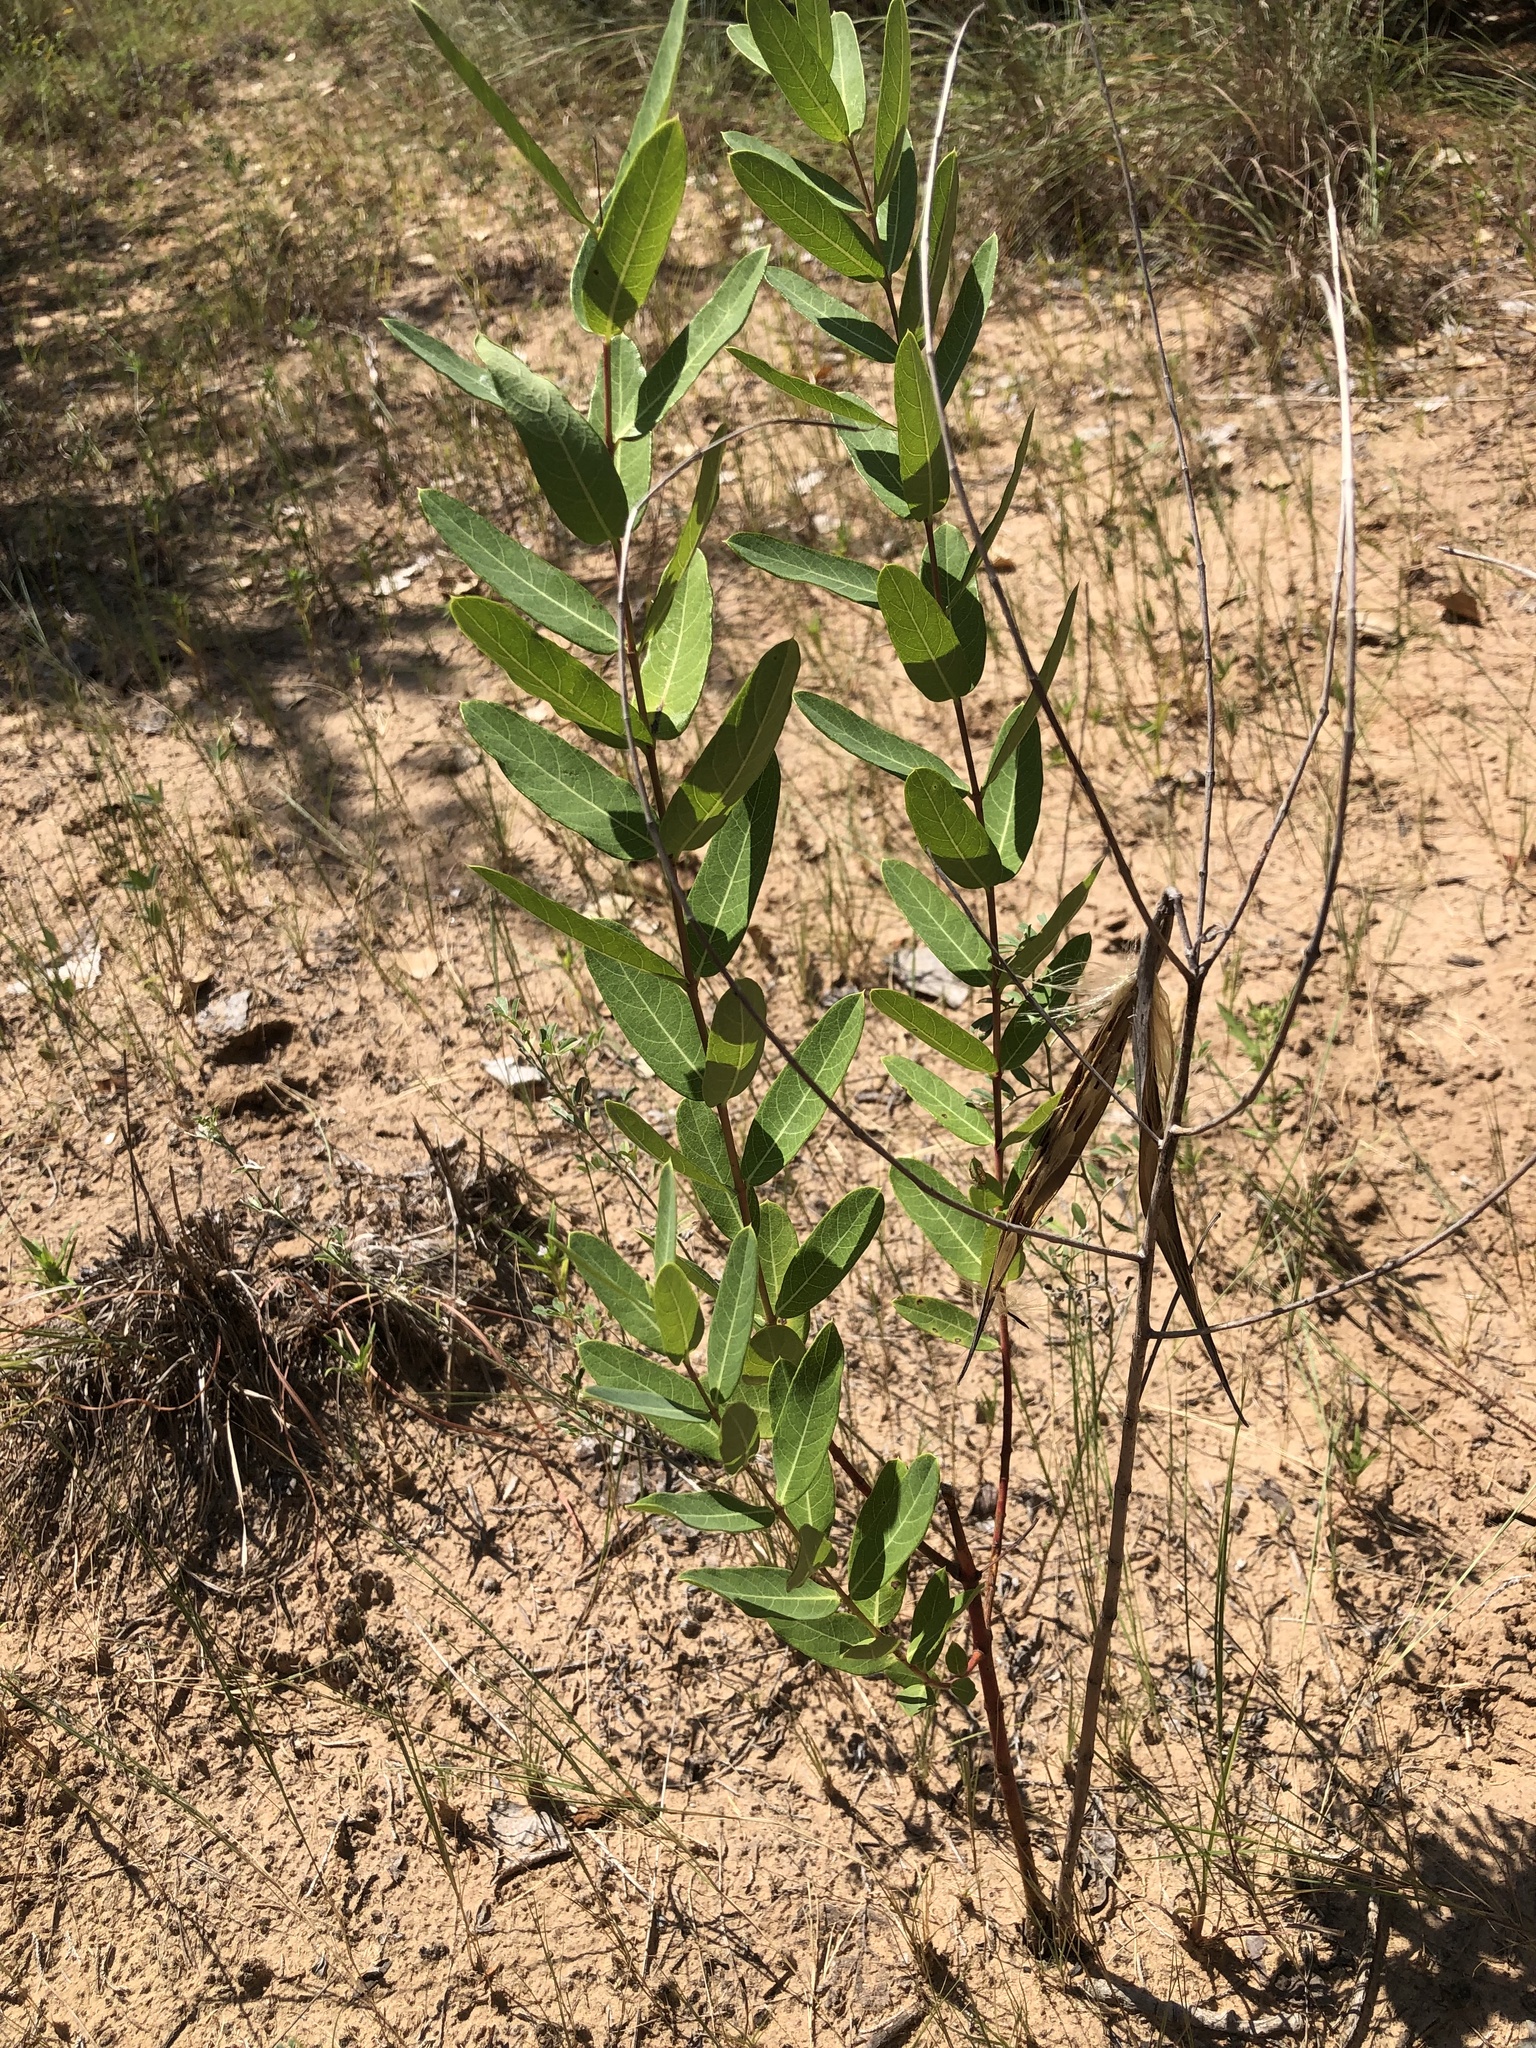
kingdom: Plantae
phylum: Tracheophyta
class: Magnoliopsida
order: Gentianales
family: Apocynaceae
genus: Apocynum
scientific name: Apocynum cannabinum
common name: Hemp dogbane
